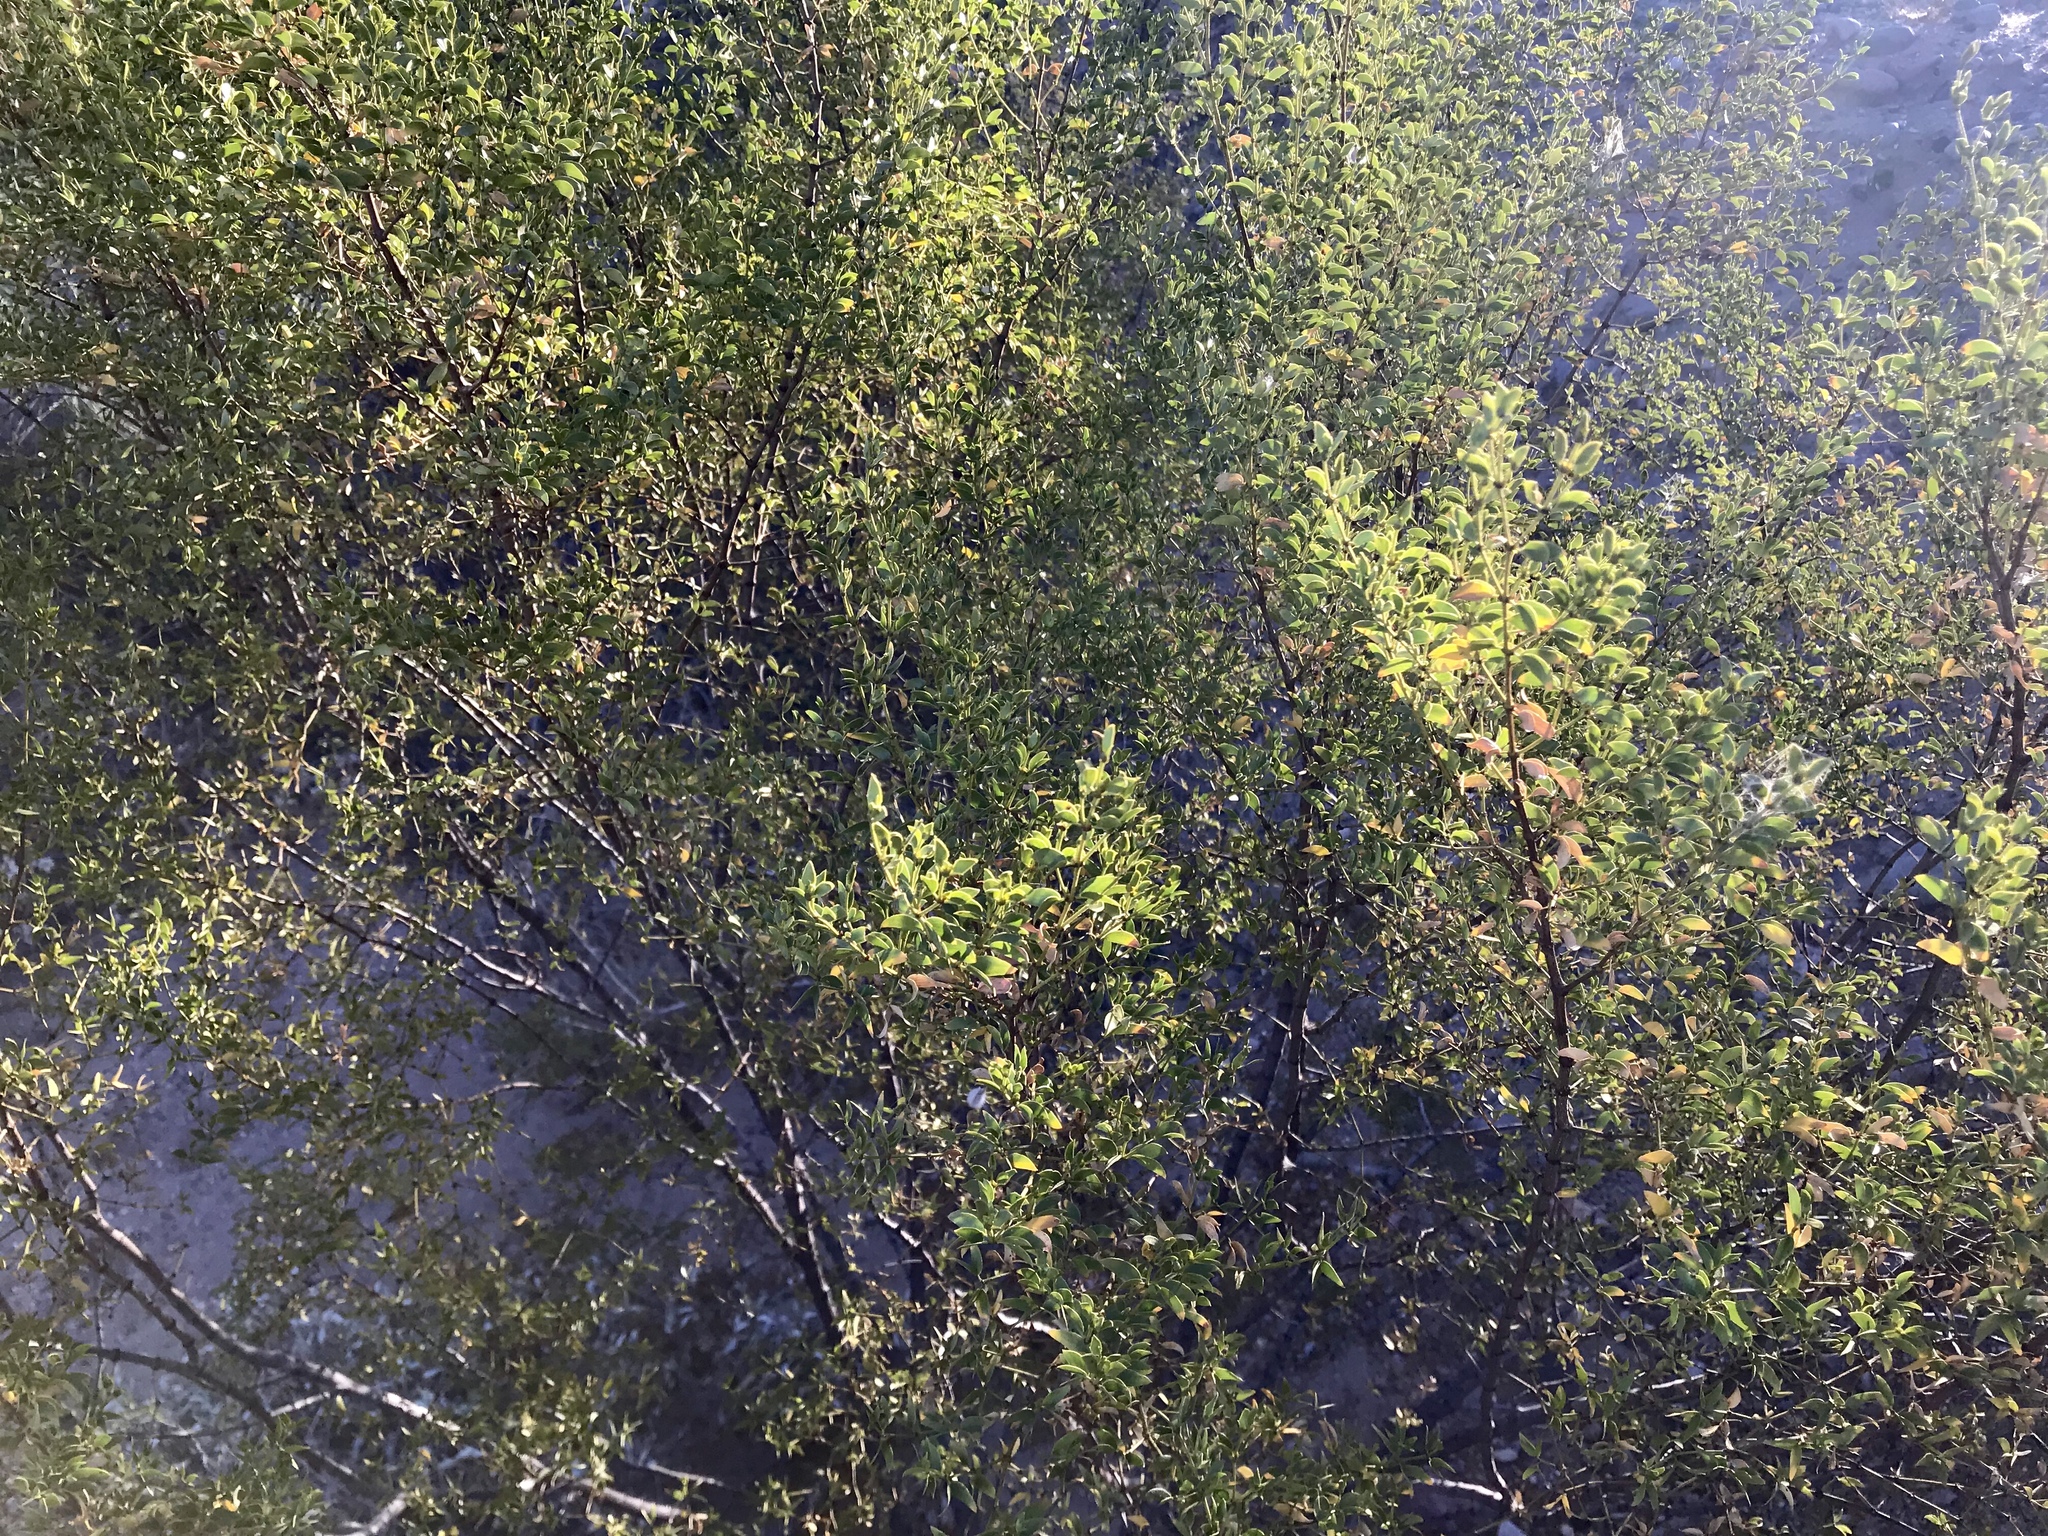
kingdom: Plantae
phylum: Tracheophyta
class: Magnoliopsida
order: Zygophyllales
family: Zygophyllaceae
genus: Larrea
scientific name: Larrea tridentata
